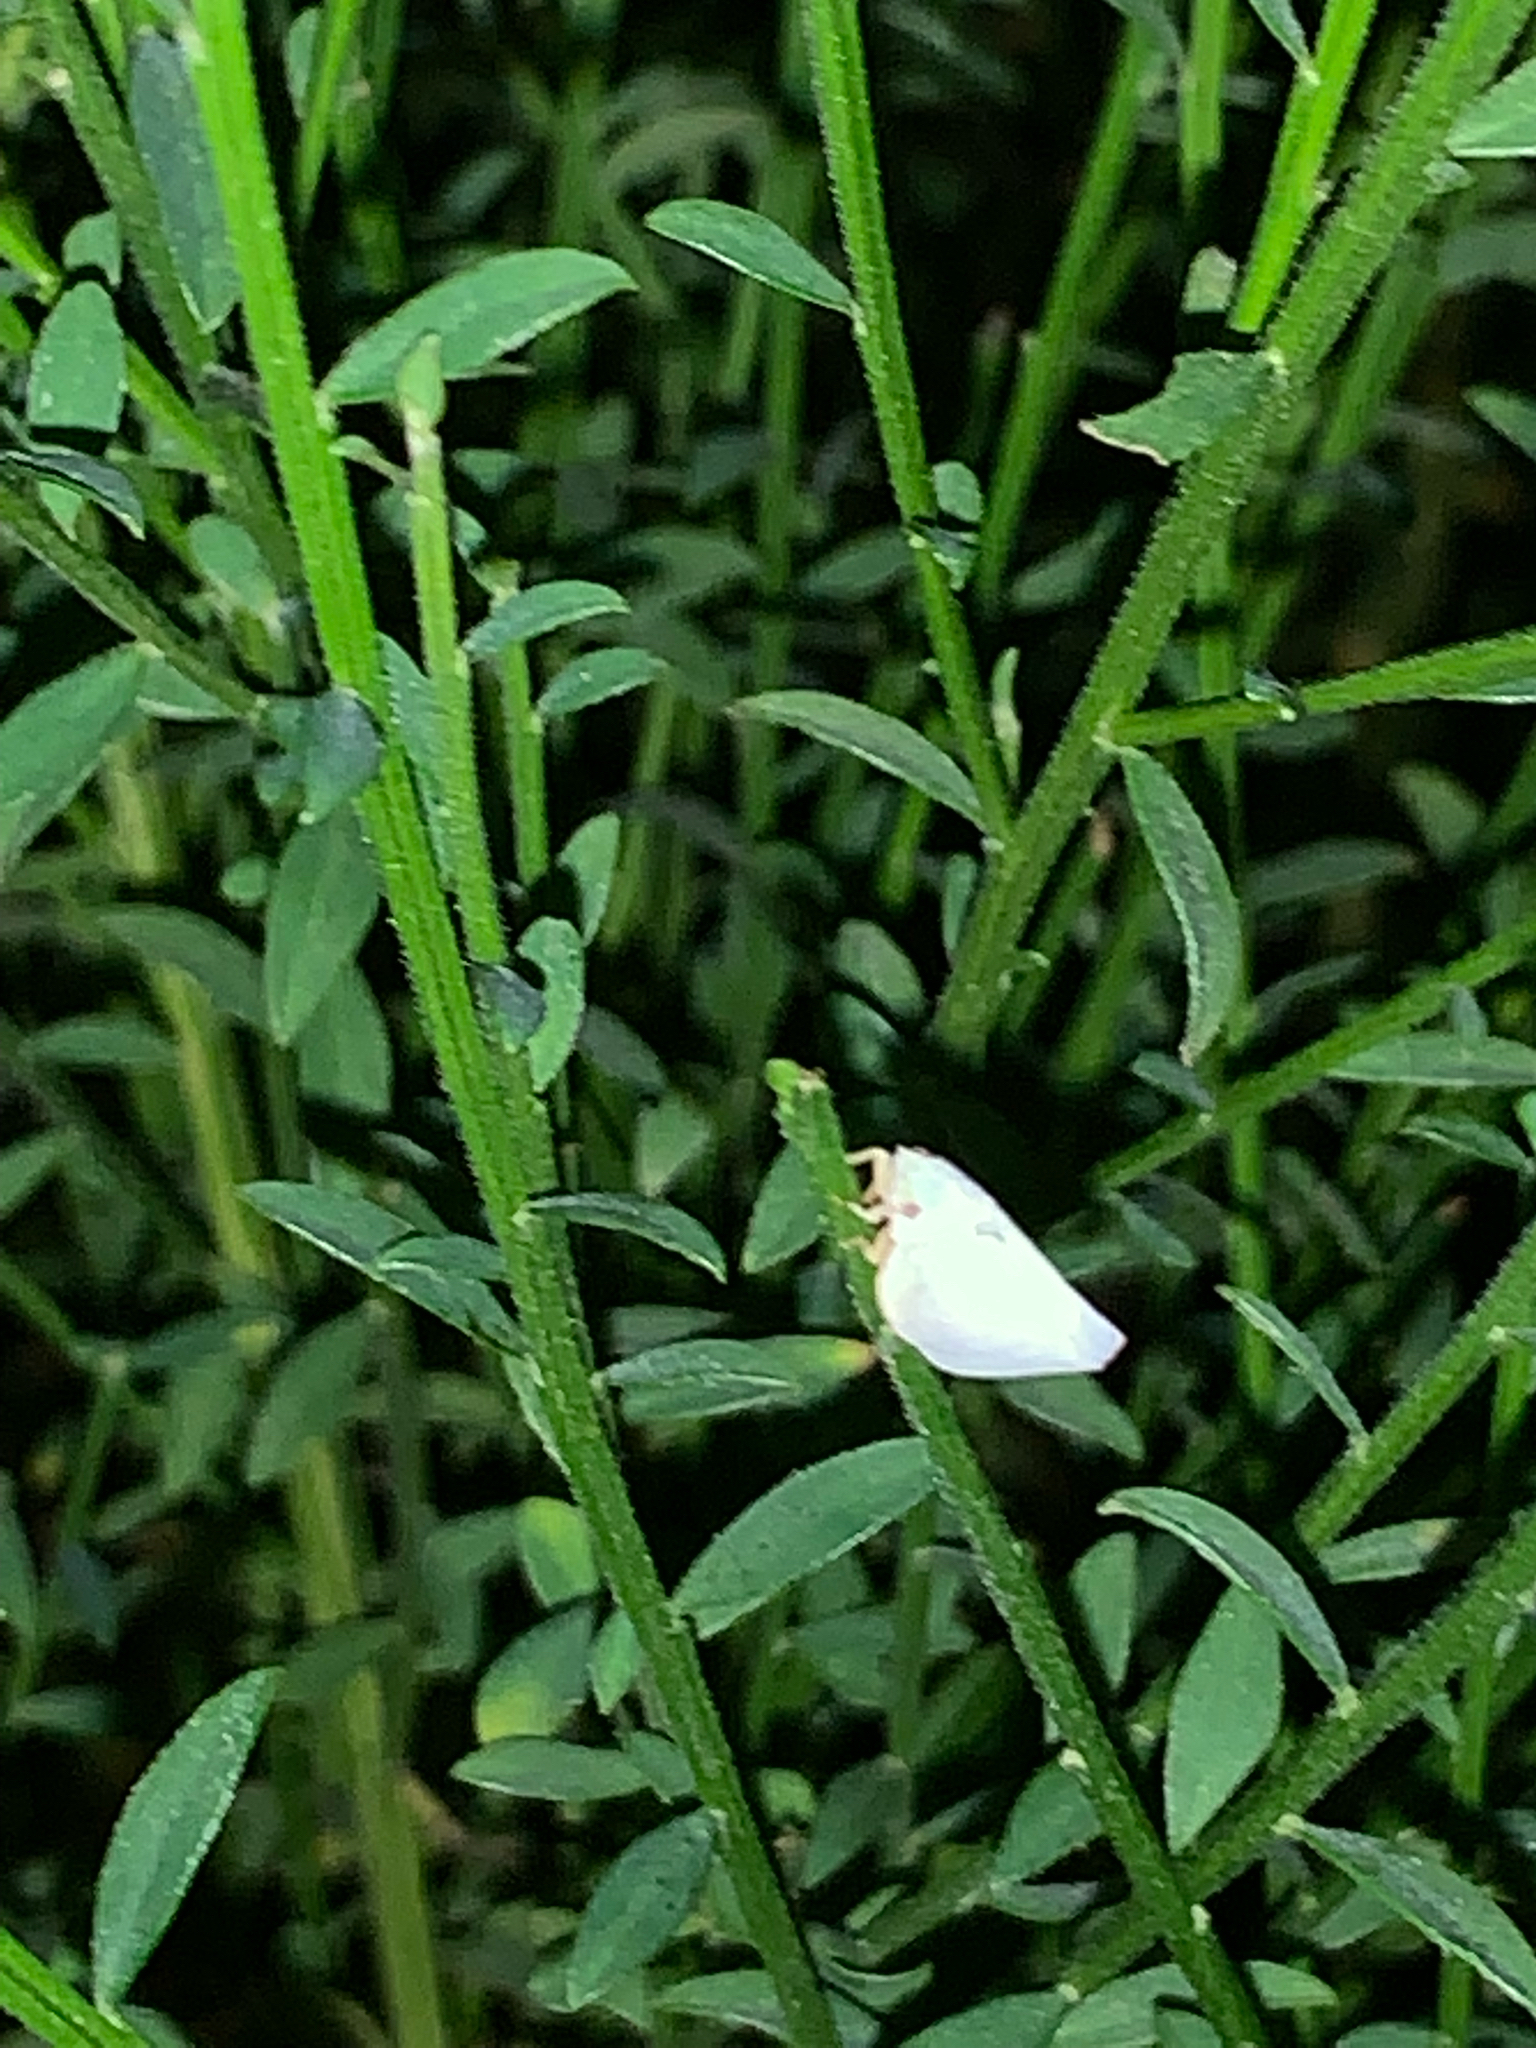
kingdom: Animalia
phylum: Arthropoda
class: Insecta
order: Hemiptera
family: Flatidae
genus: Flatormenis
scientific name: Flatormenis proxima
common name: Northern flatid planthopper
